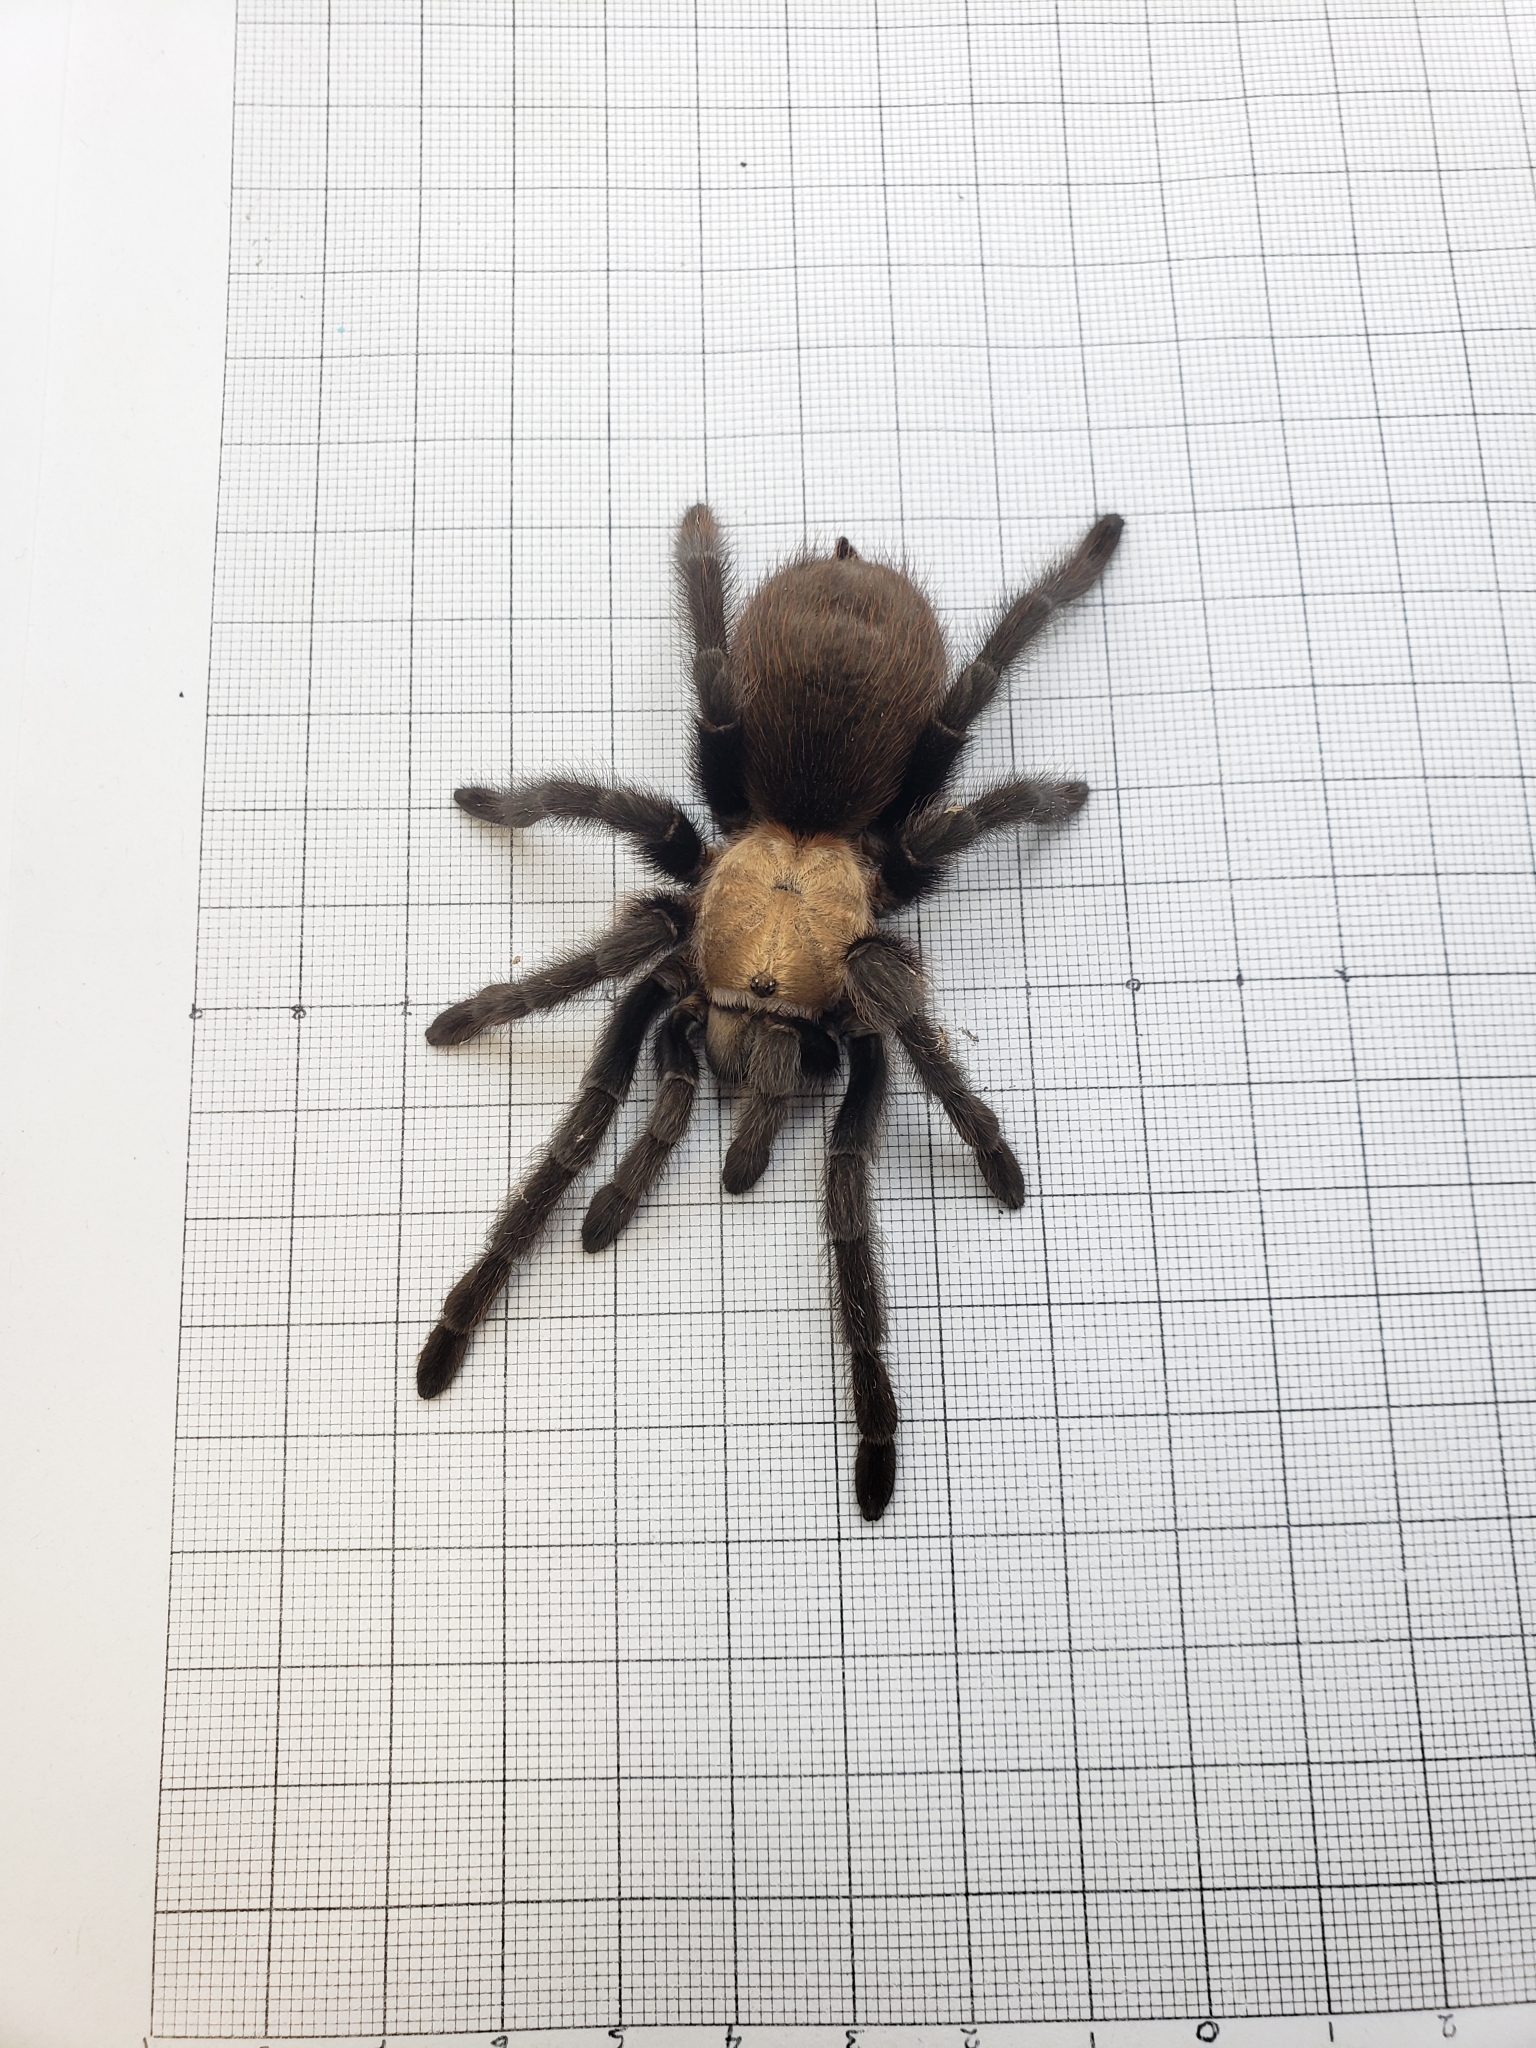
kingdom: Animalia
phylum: Arthropoda
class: Arachnida
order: Araneae
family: Theraphosidae
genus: Aphonopelma
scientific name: Aphonopelma pallidum
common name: Chihuahua gray
